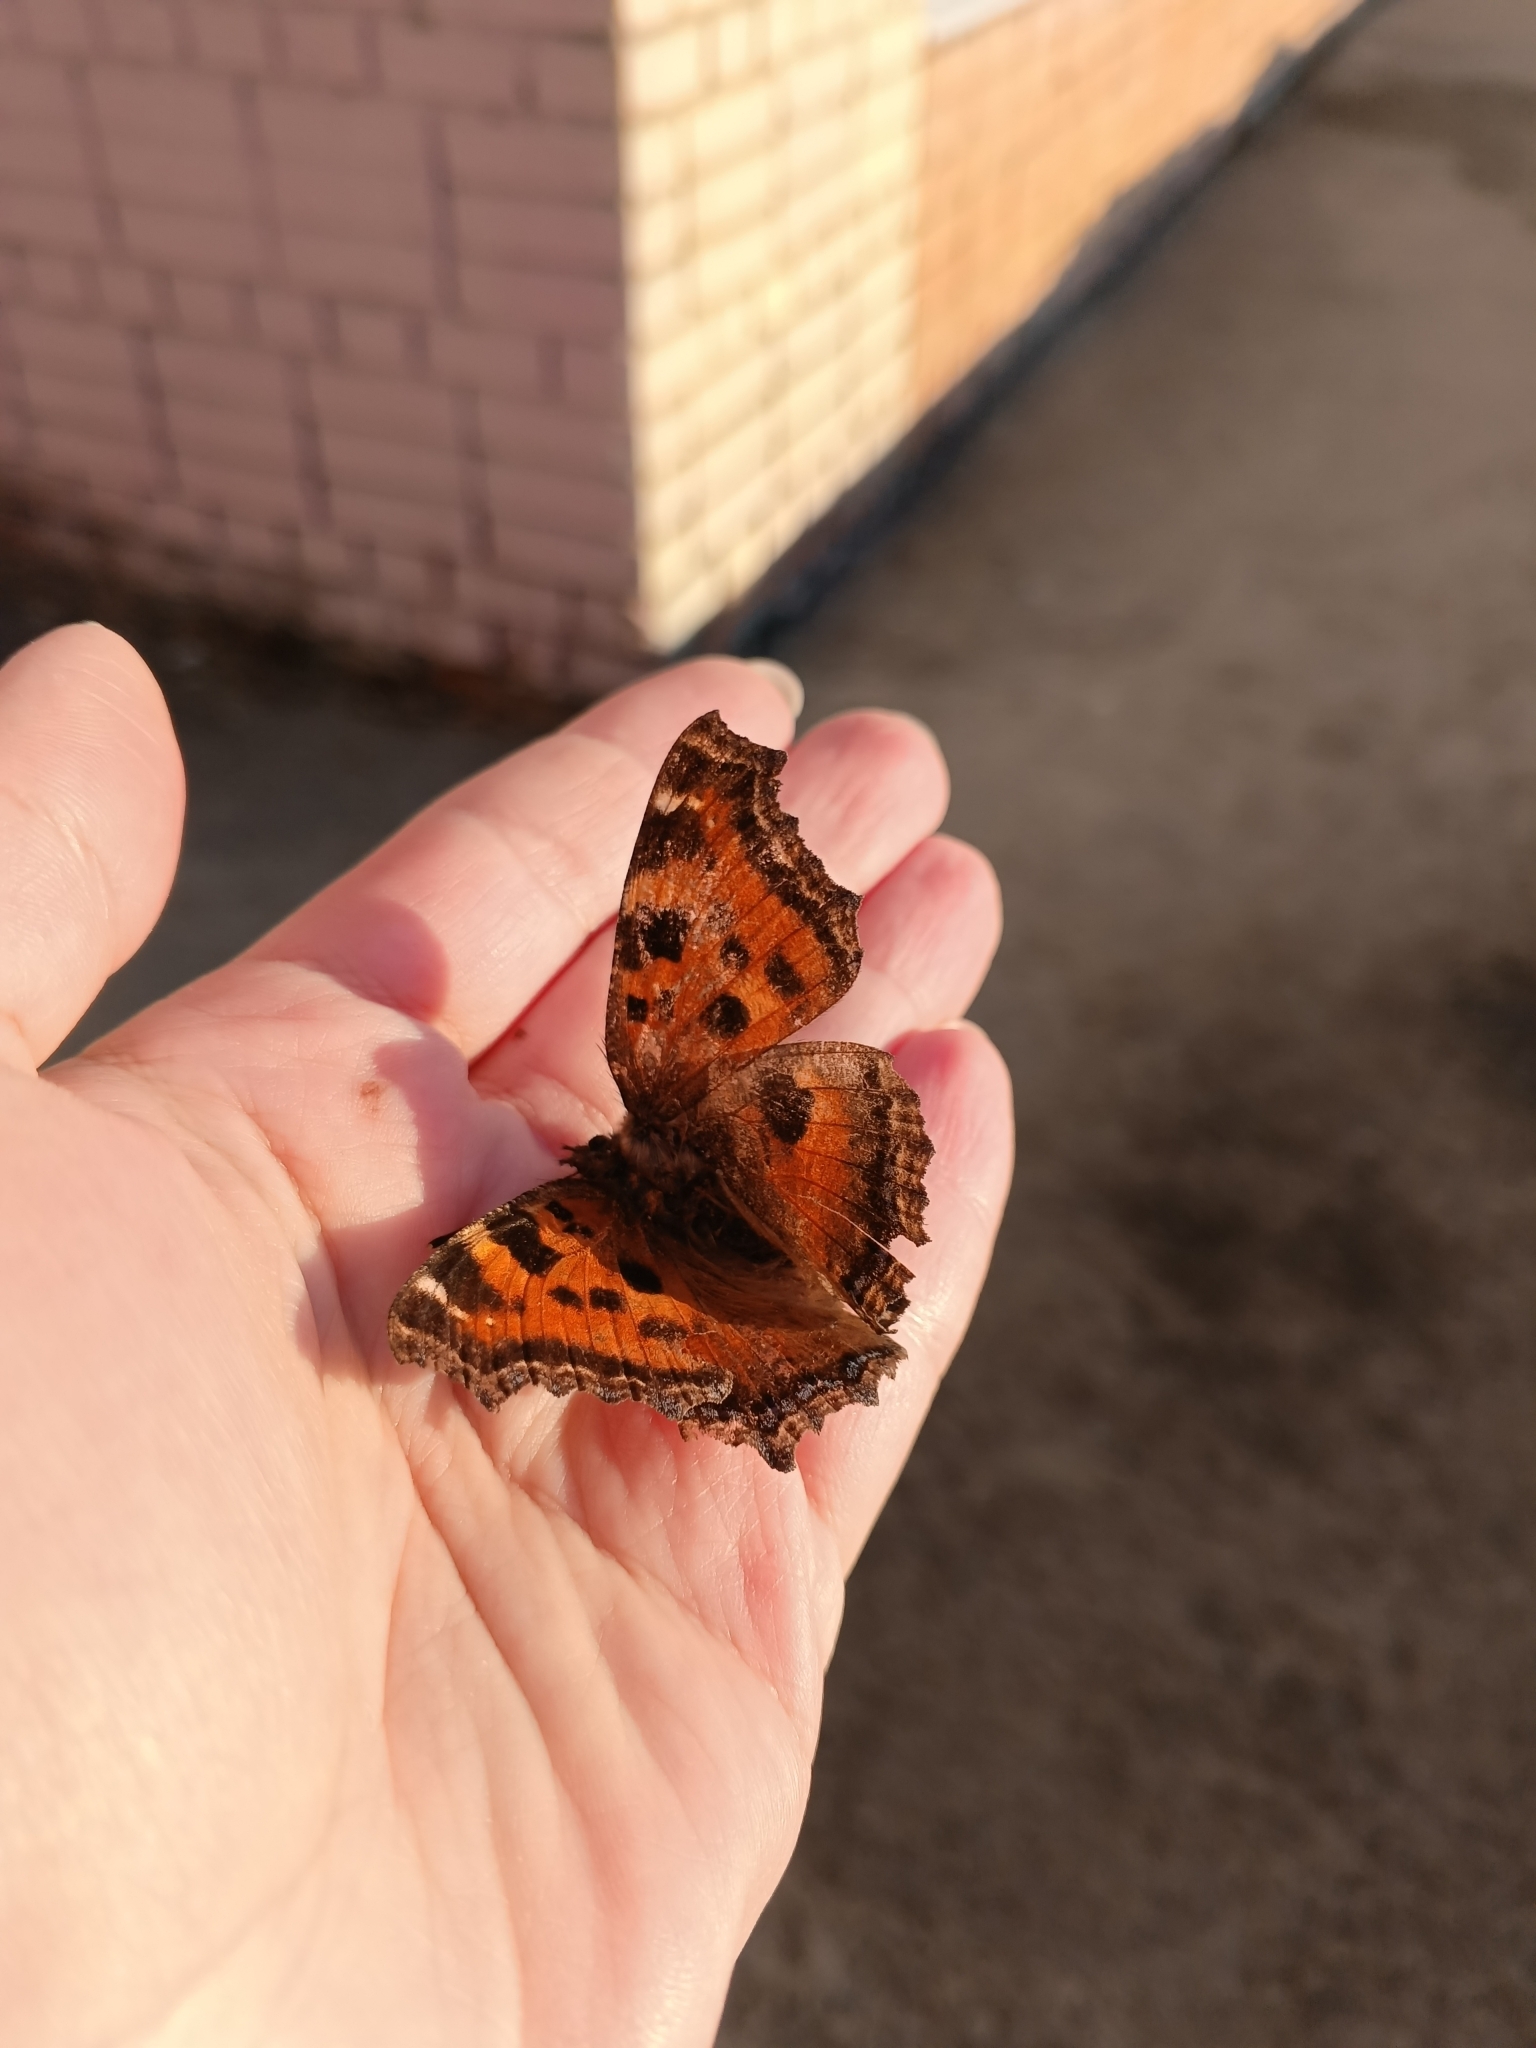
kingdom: Animalia
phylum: Arthropoda
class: Insecta
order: Lepidoptera
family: Nymphalidae
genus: Nymphalis
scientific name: Nymphalis xanthomelas
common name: Scarce tortoiseshell
